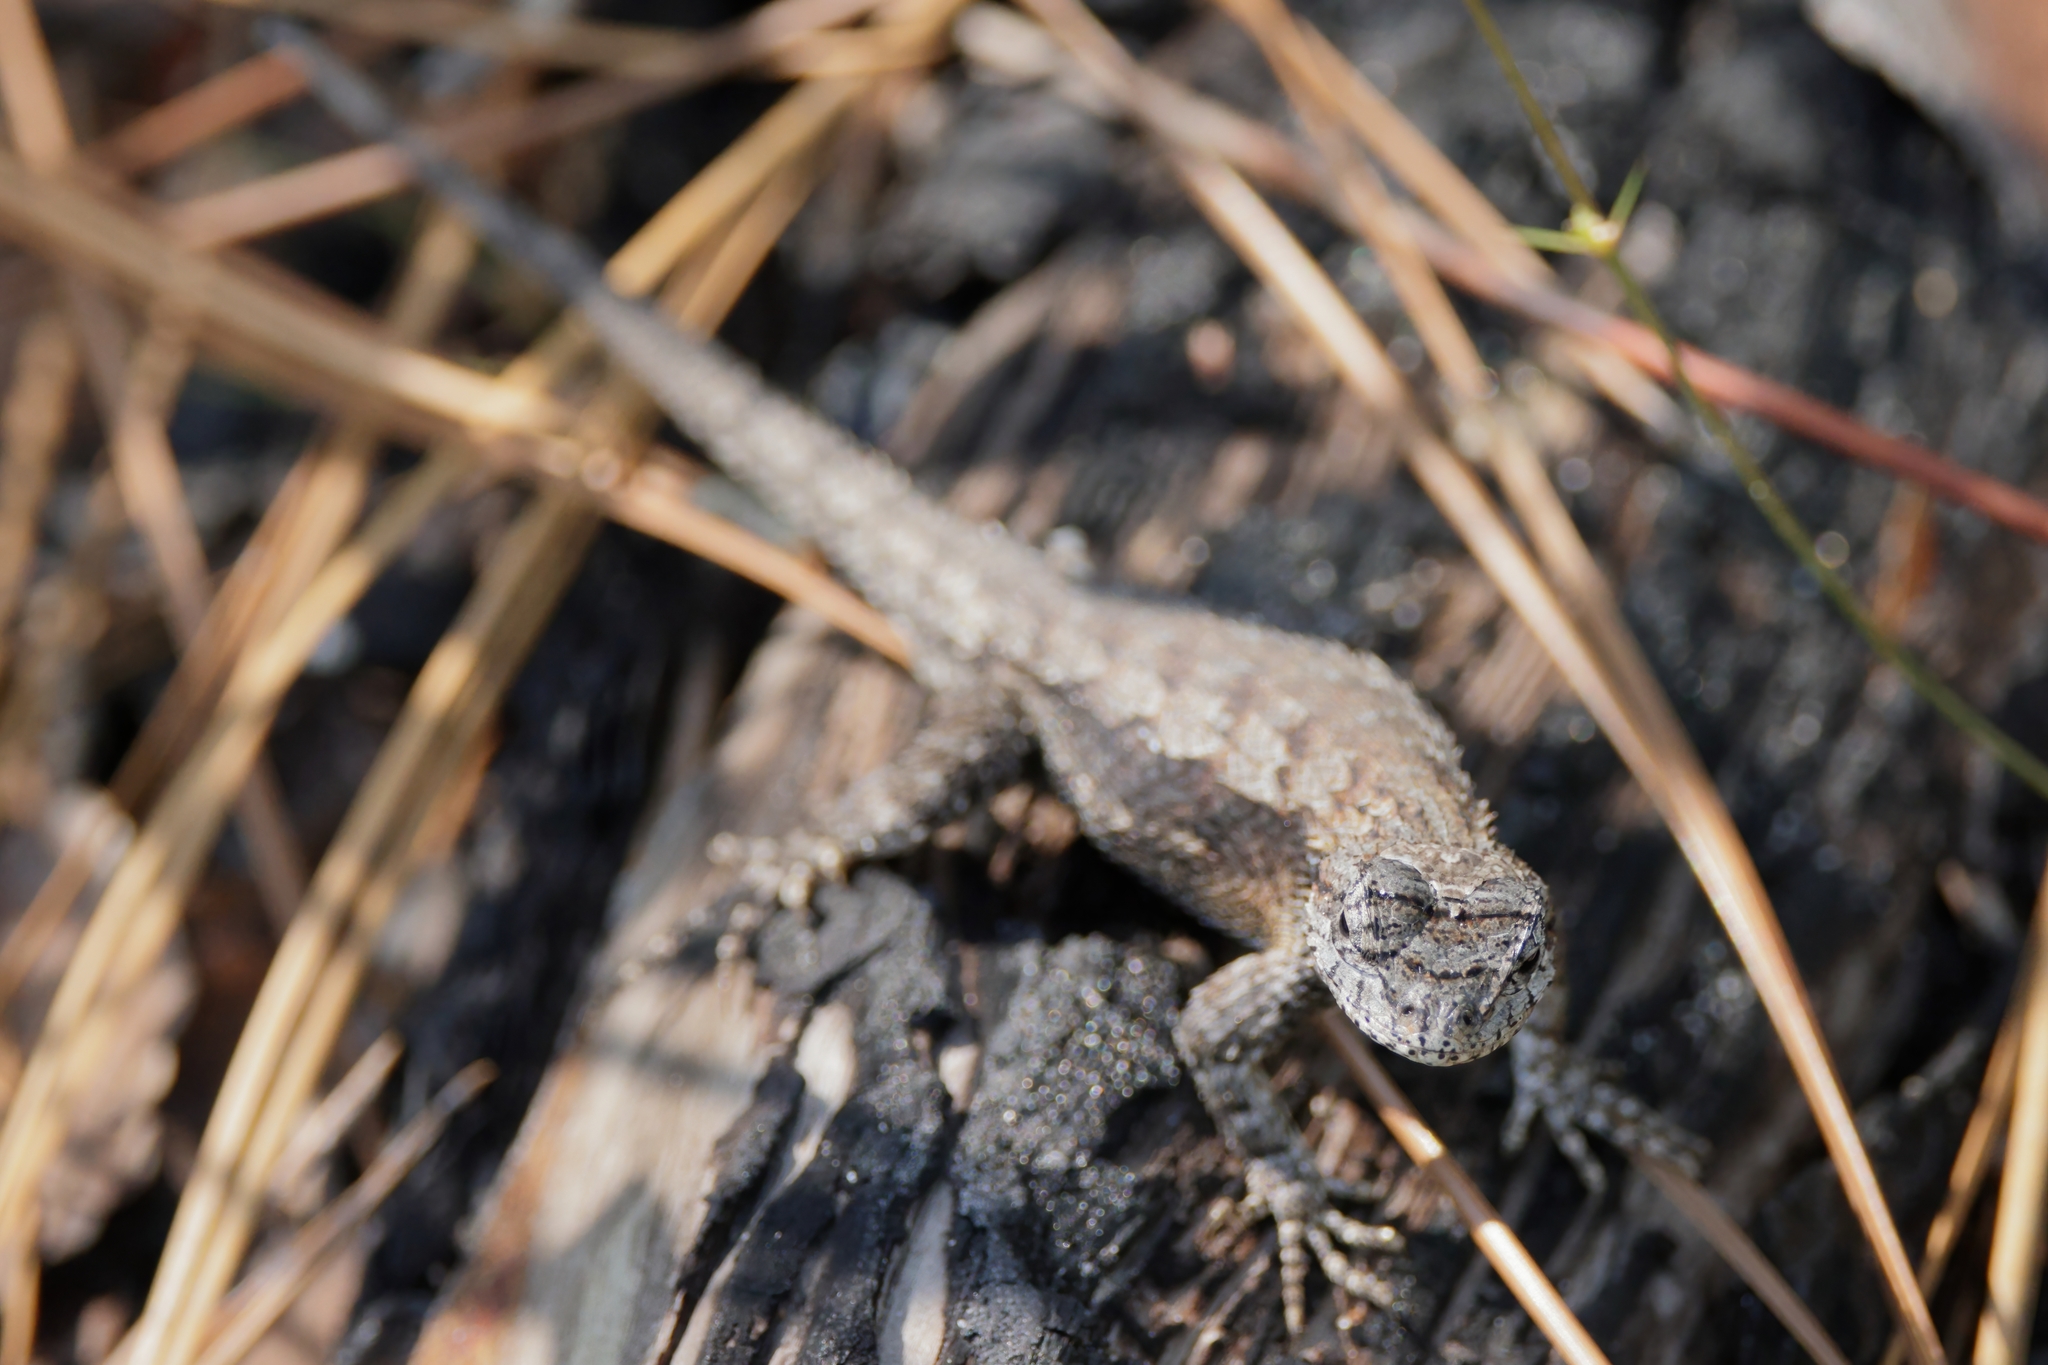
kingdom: Animalia
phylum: Chordata
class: Squamata
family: Phrynosomatidae
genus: Sceloporus
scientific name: Sceloporus undulatus
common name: Eastern fence lizard
